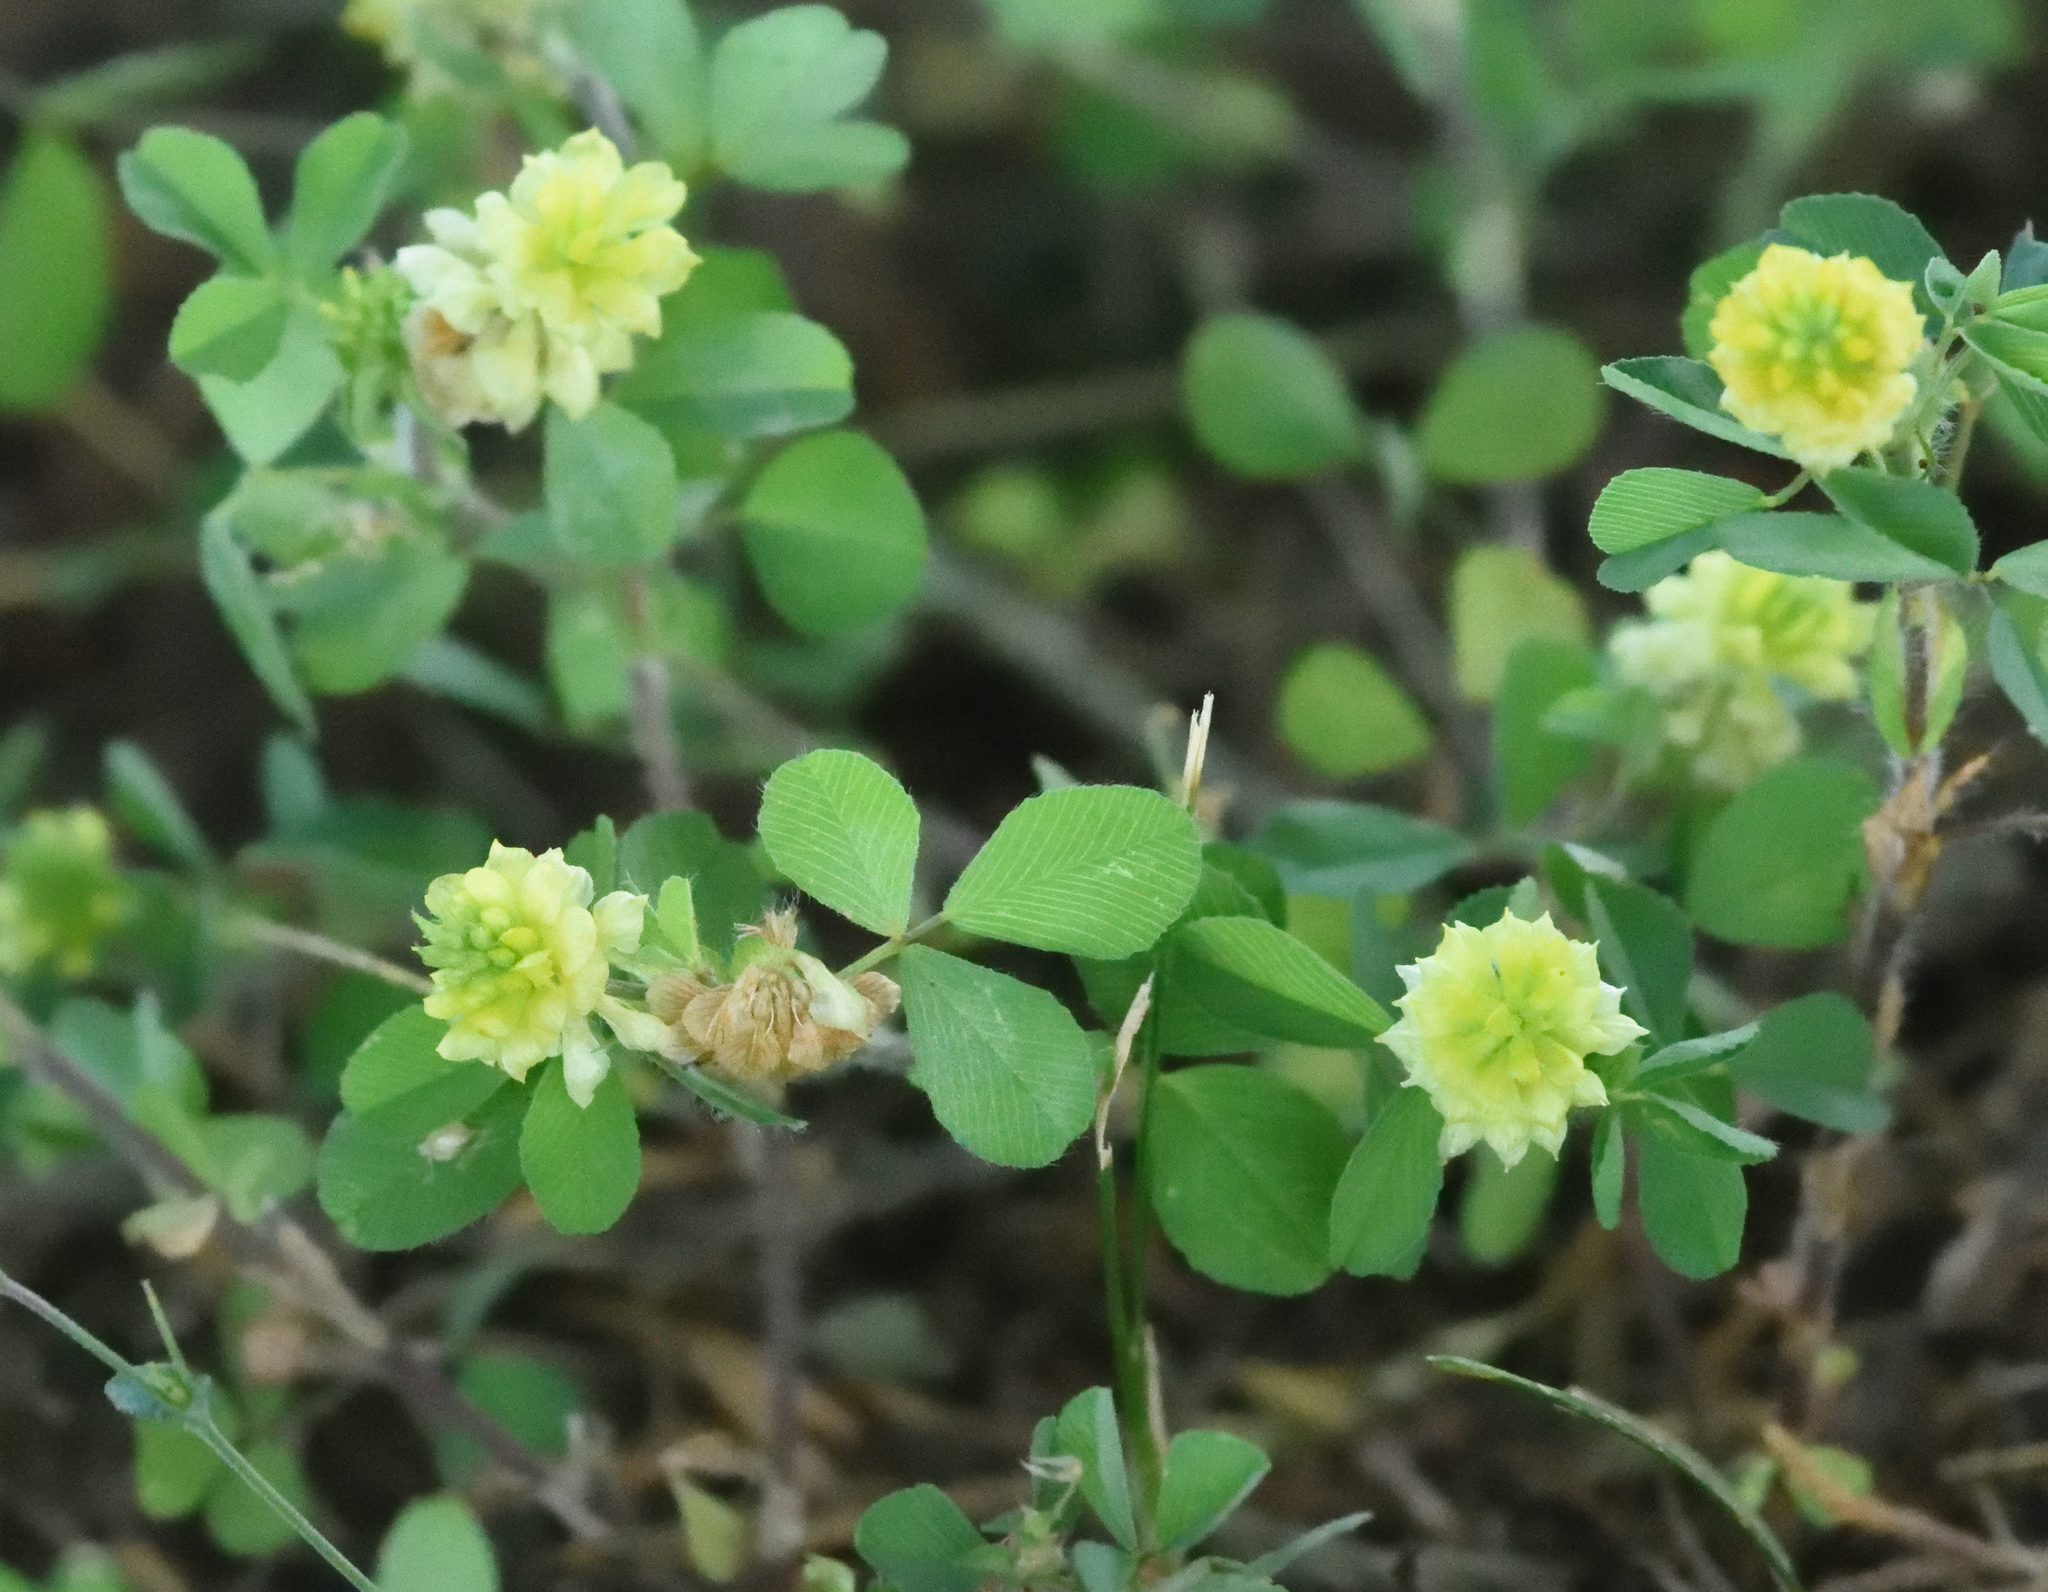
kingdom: Plantae
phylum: Tracheophyta
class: Magnoliopsida
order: Fabales
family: Fabaceae
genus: Trifolium
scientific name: Trifolium campestre
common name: Field clover
